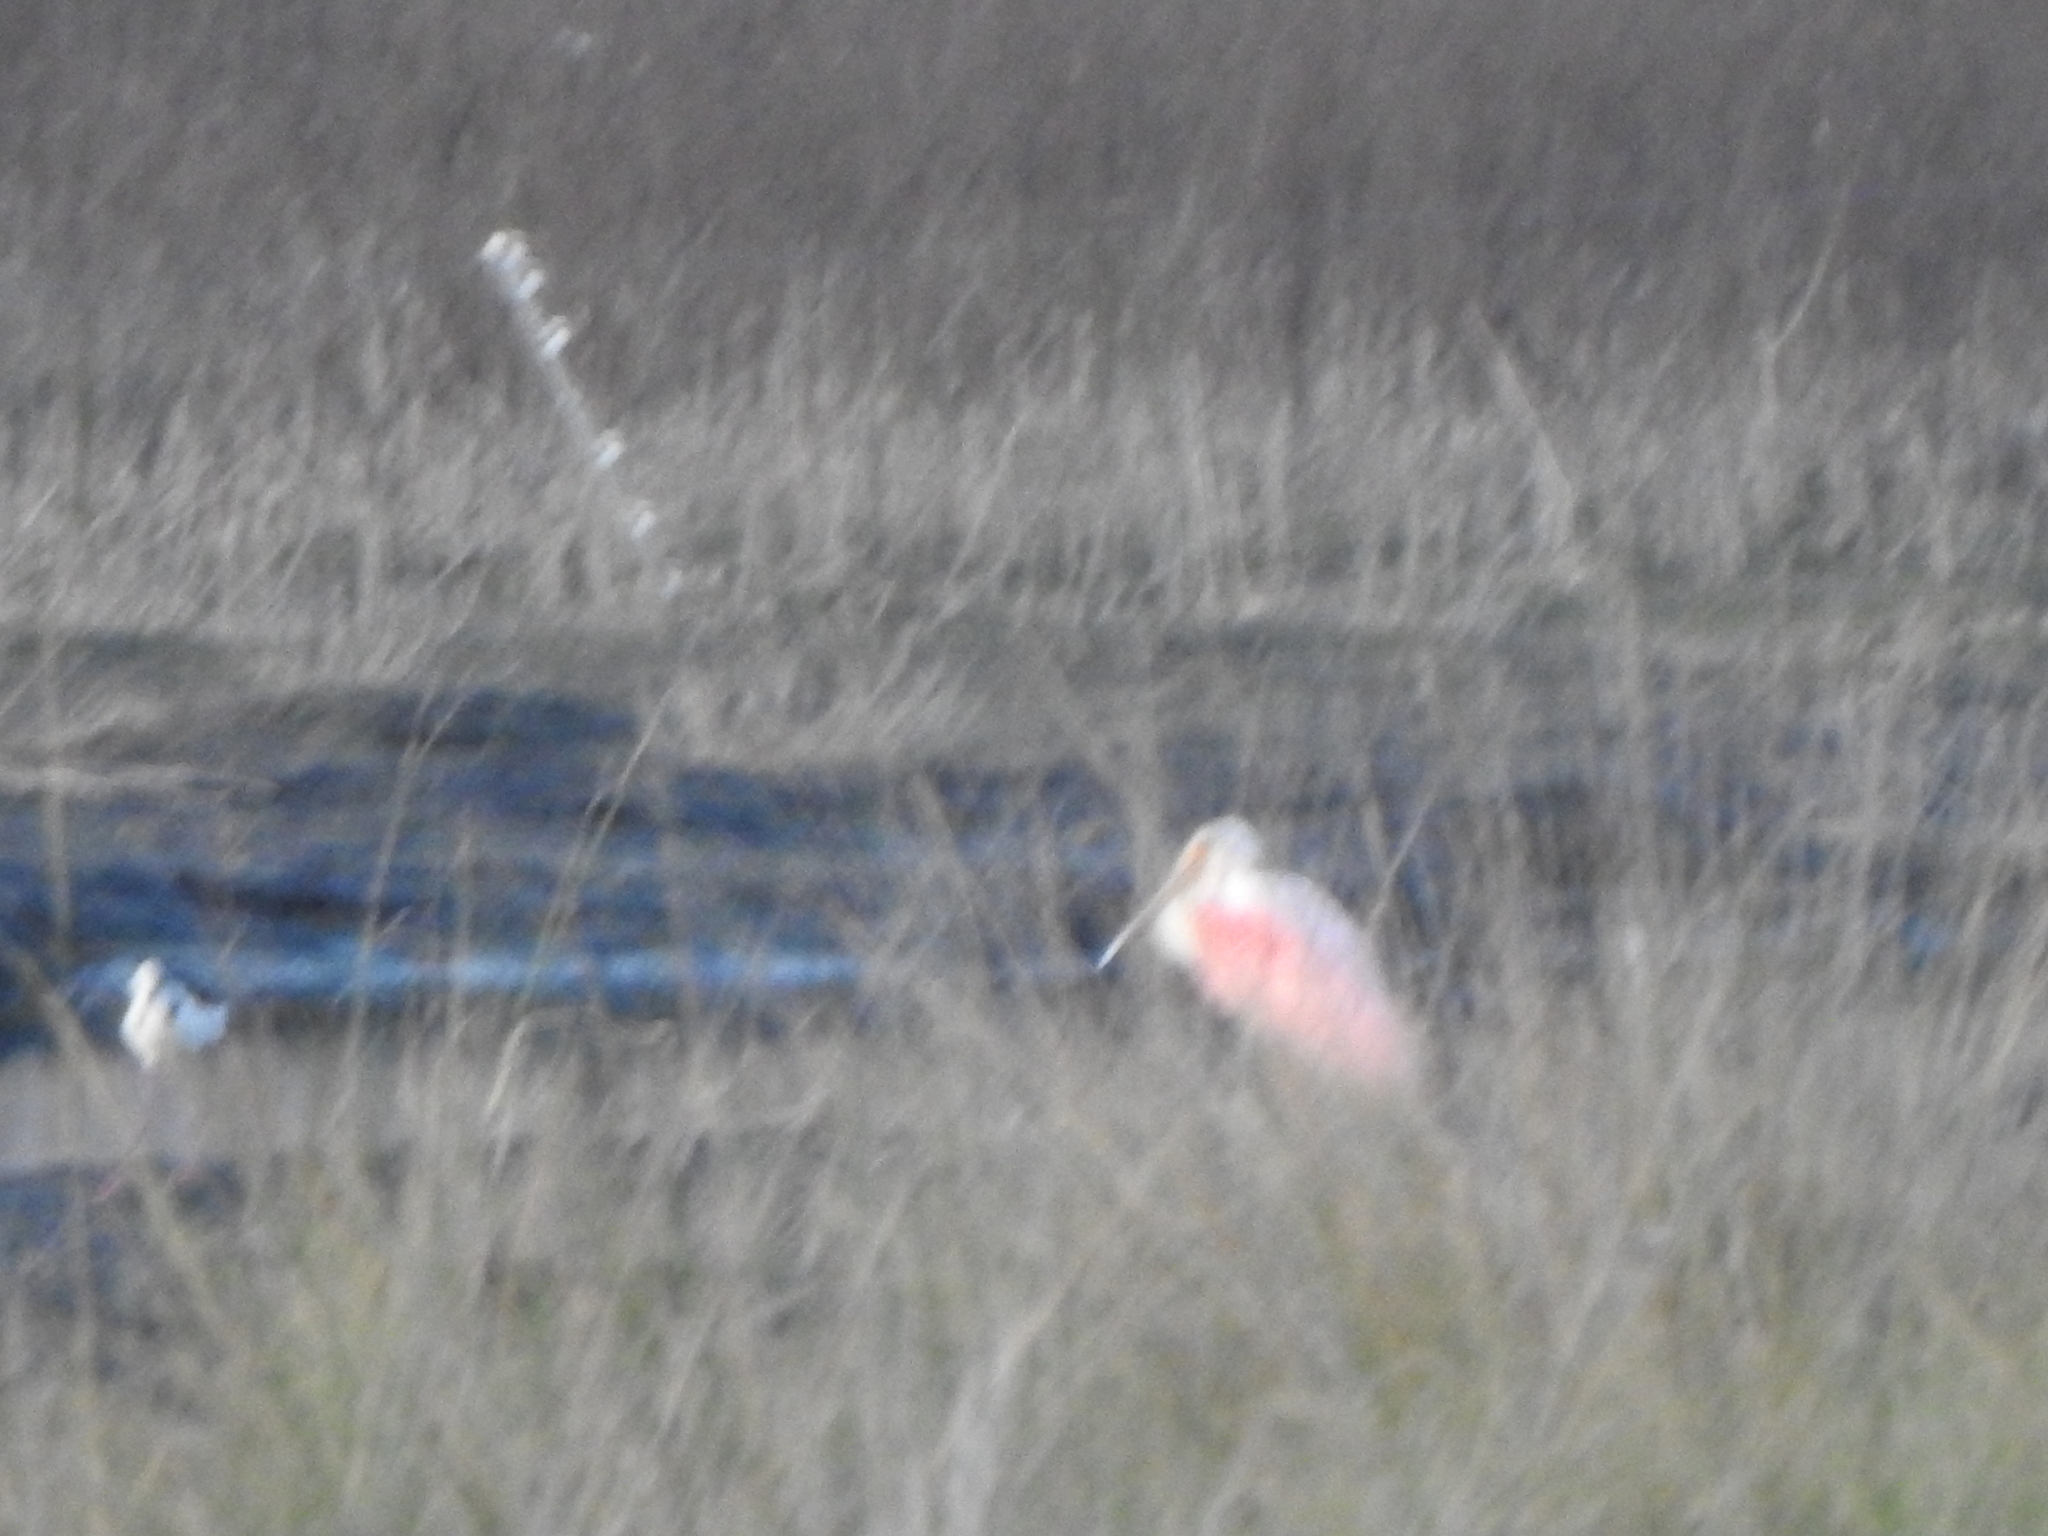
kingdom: Animalia
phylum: Chordata
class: Aves
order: Pelecaniformes
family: Threskiornithidae
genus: Platalea
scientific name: Platalea ajaja
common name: Roseate spoonbill
